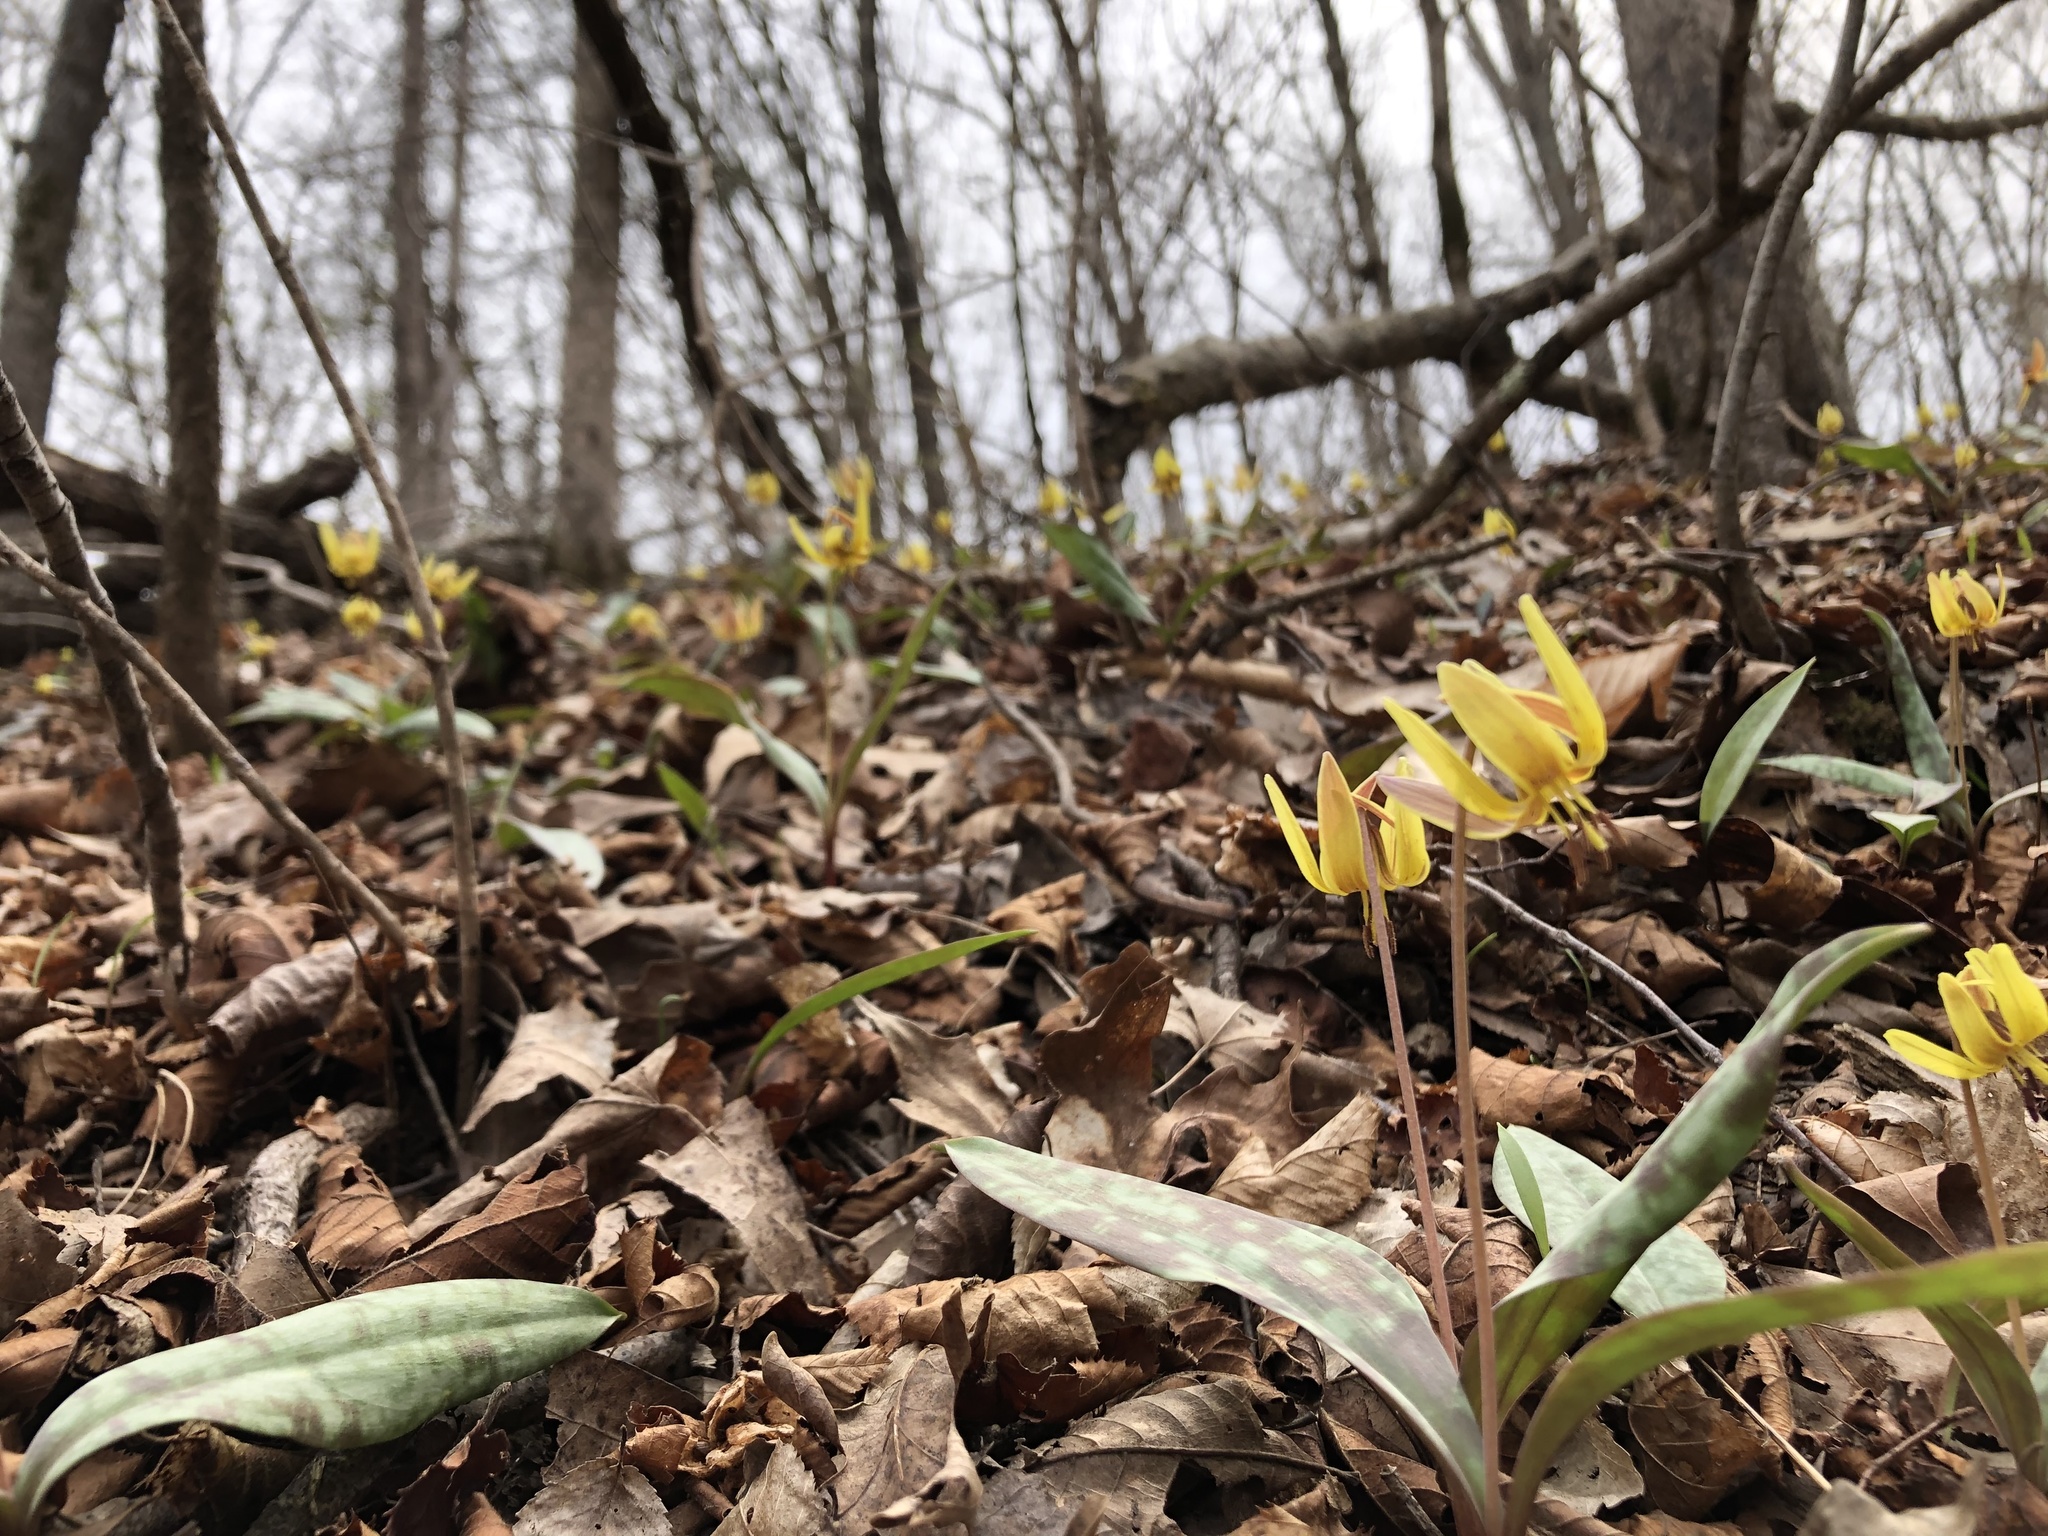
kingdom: Plantae
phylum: Tracheophyta
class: Liliopsida
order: Liliales
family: Liliaceae
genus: Erythronium
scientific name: Erythronium umbilicatum
